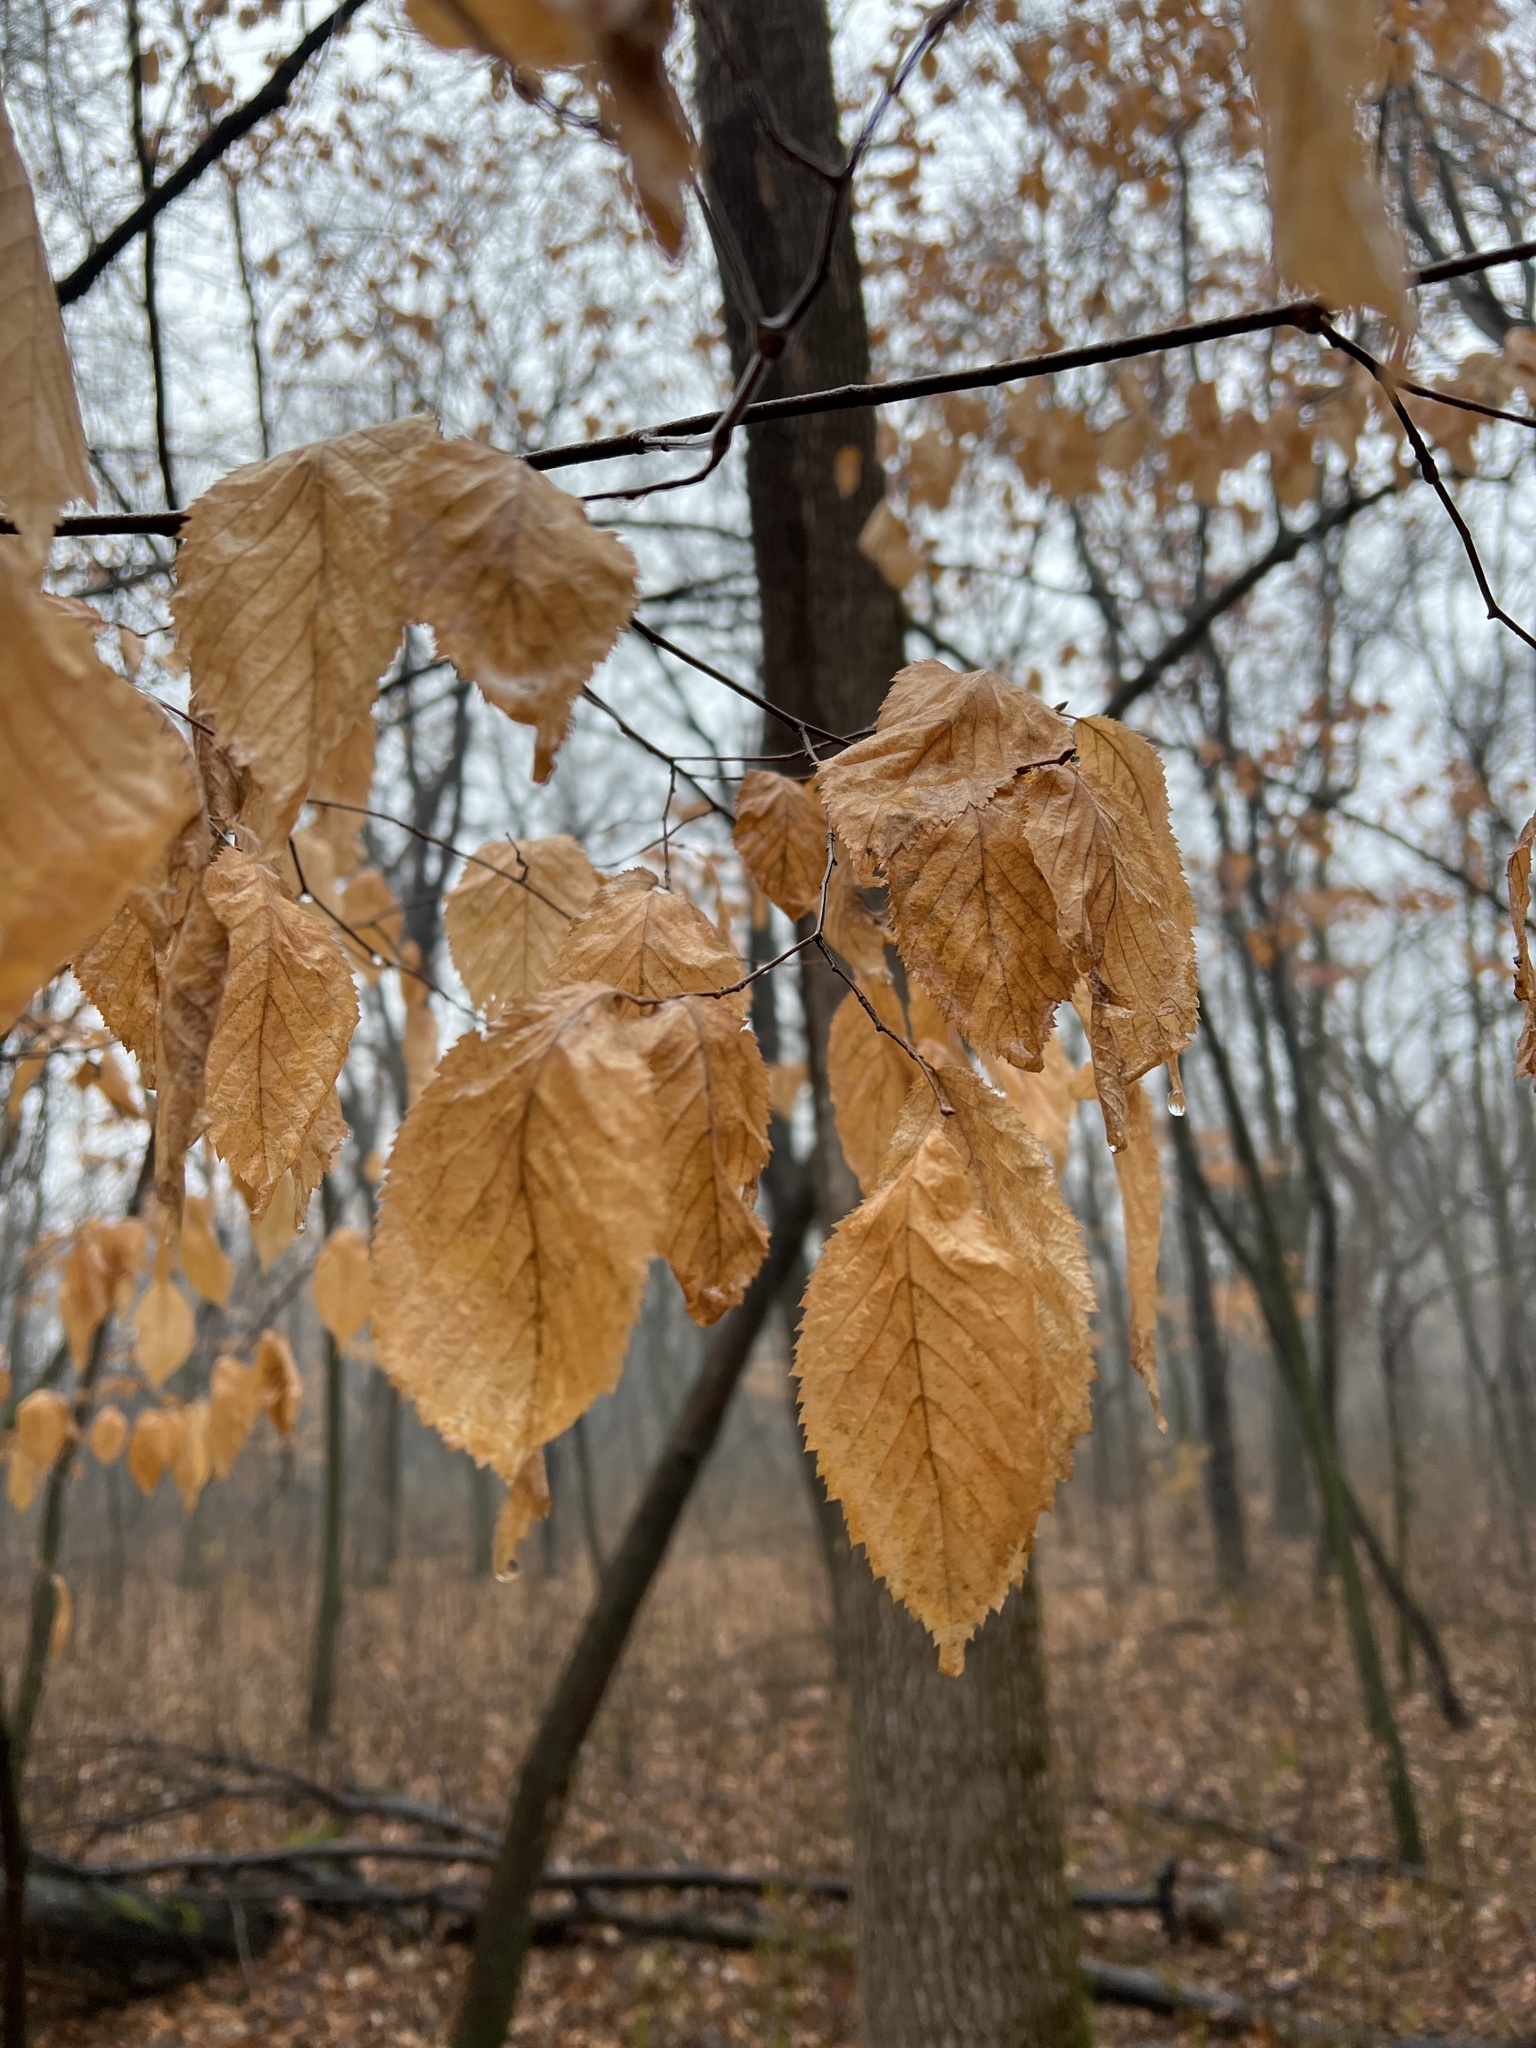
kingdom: Plantae
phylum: Tracheophyta
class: Magnoliopsida
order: Fagales
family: Betulaceae
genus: Ostrya
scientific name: Ostrya virginiana
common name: Ironwood
